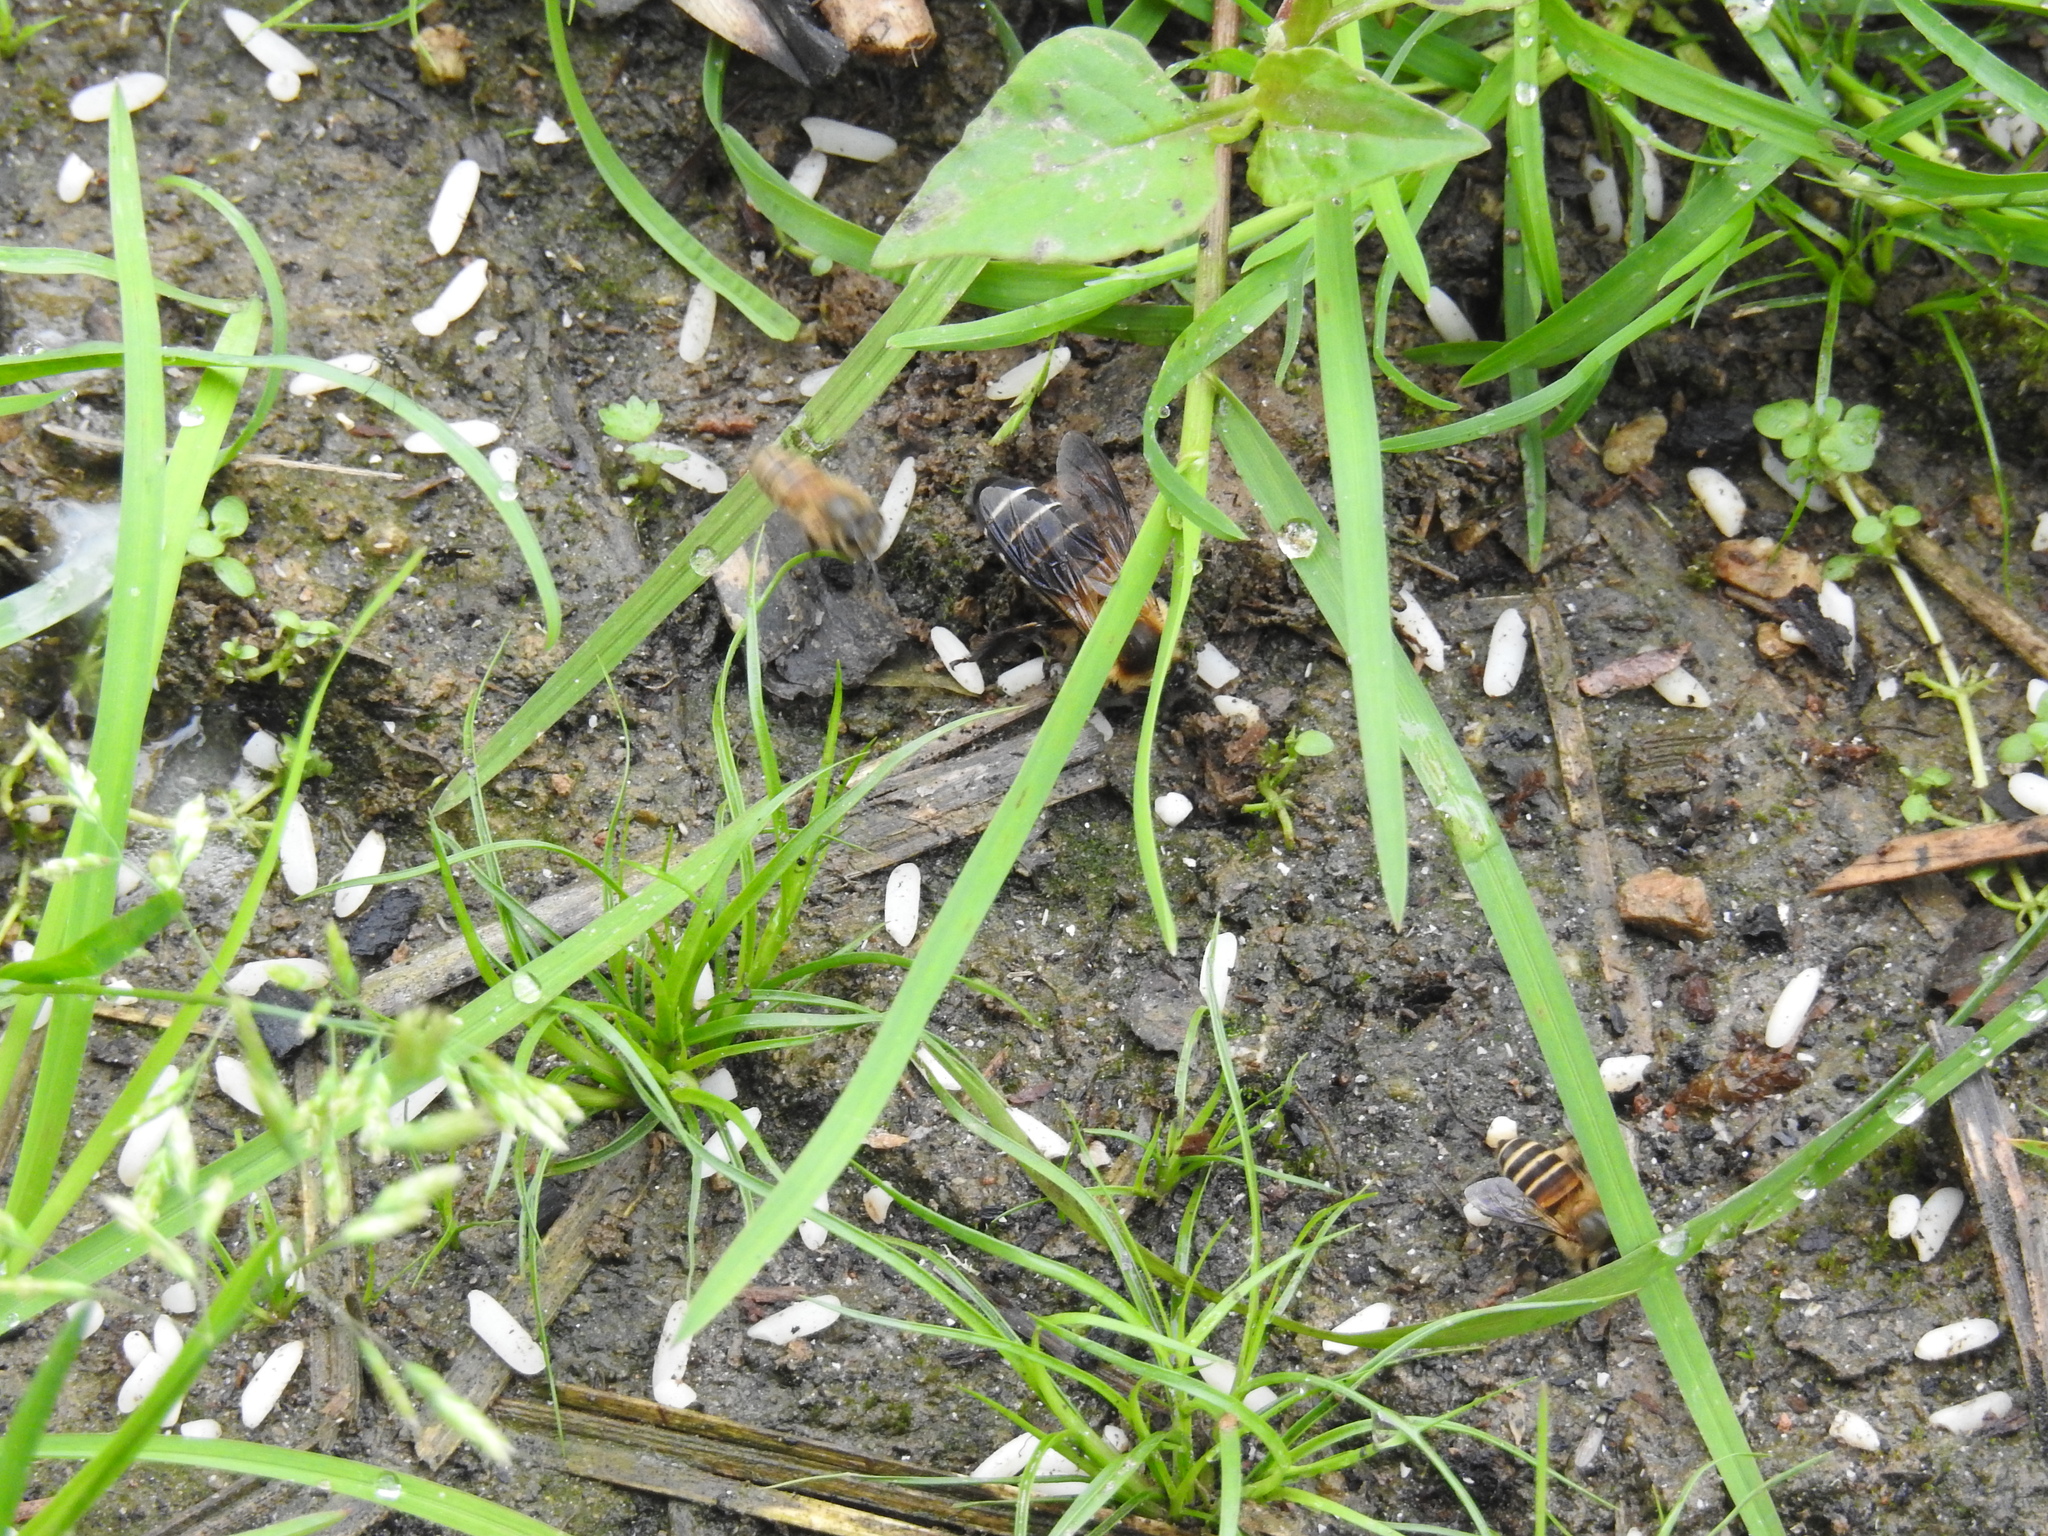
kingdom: Animalia
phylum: Arthropoda
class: Insecta
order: Hymenoptera
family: Apidae
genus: Apis
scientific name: Apis cerana
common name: Honey bee
